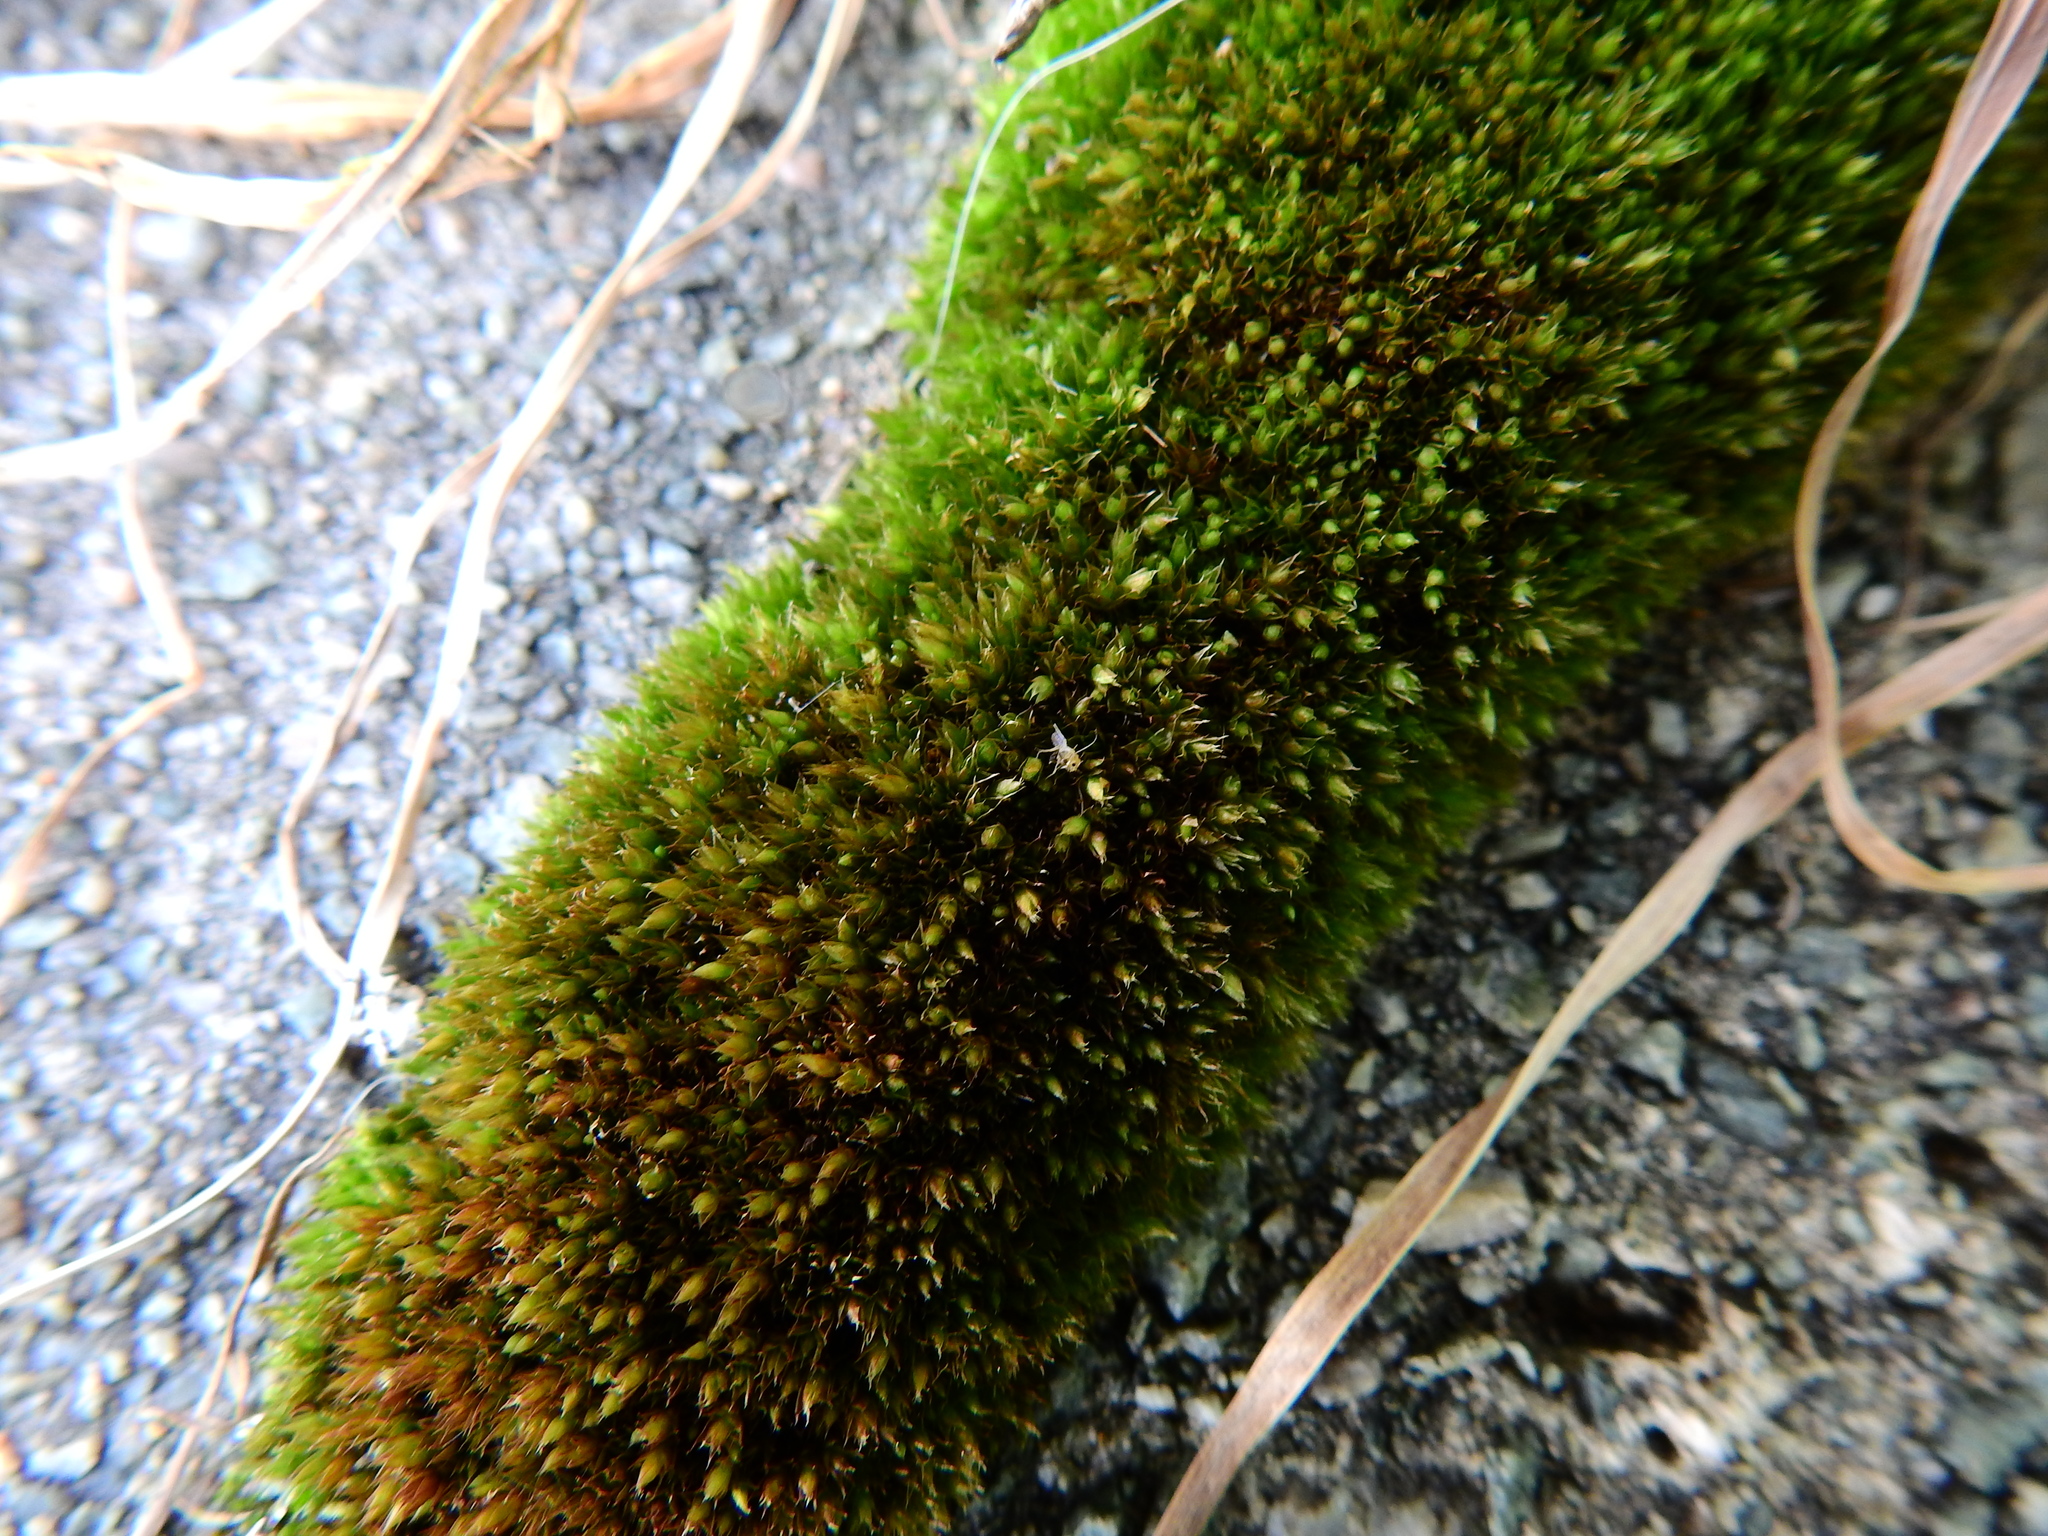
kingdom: Plantae
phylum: Bryophyta
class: Bryopsida
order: Bryales
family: Bryaceae
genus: Gemmabryum
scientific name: Gemmabryum caespiticium
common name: Handbell moss
